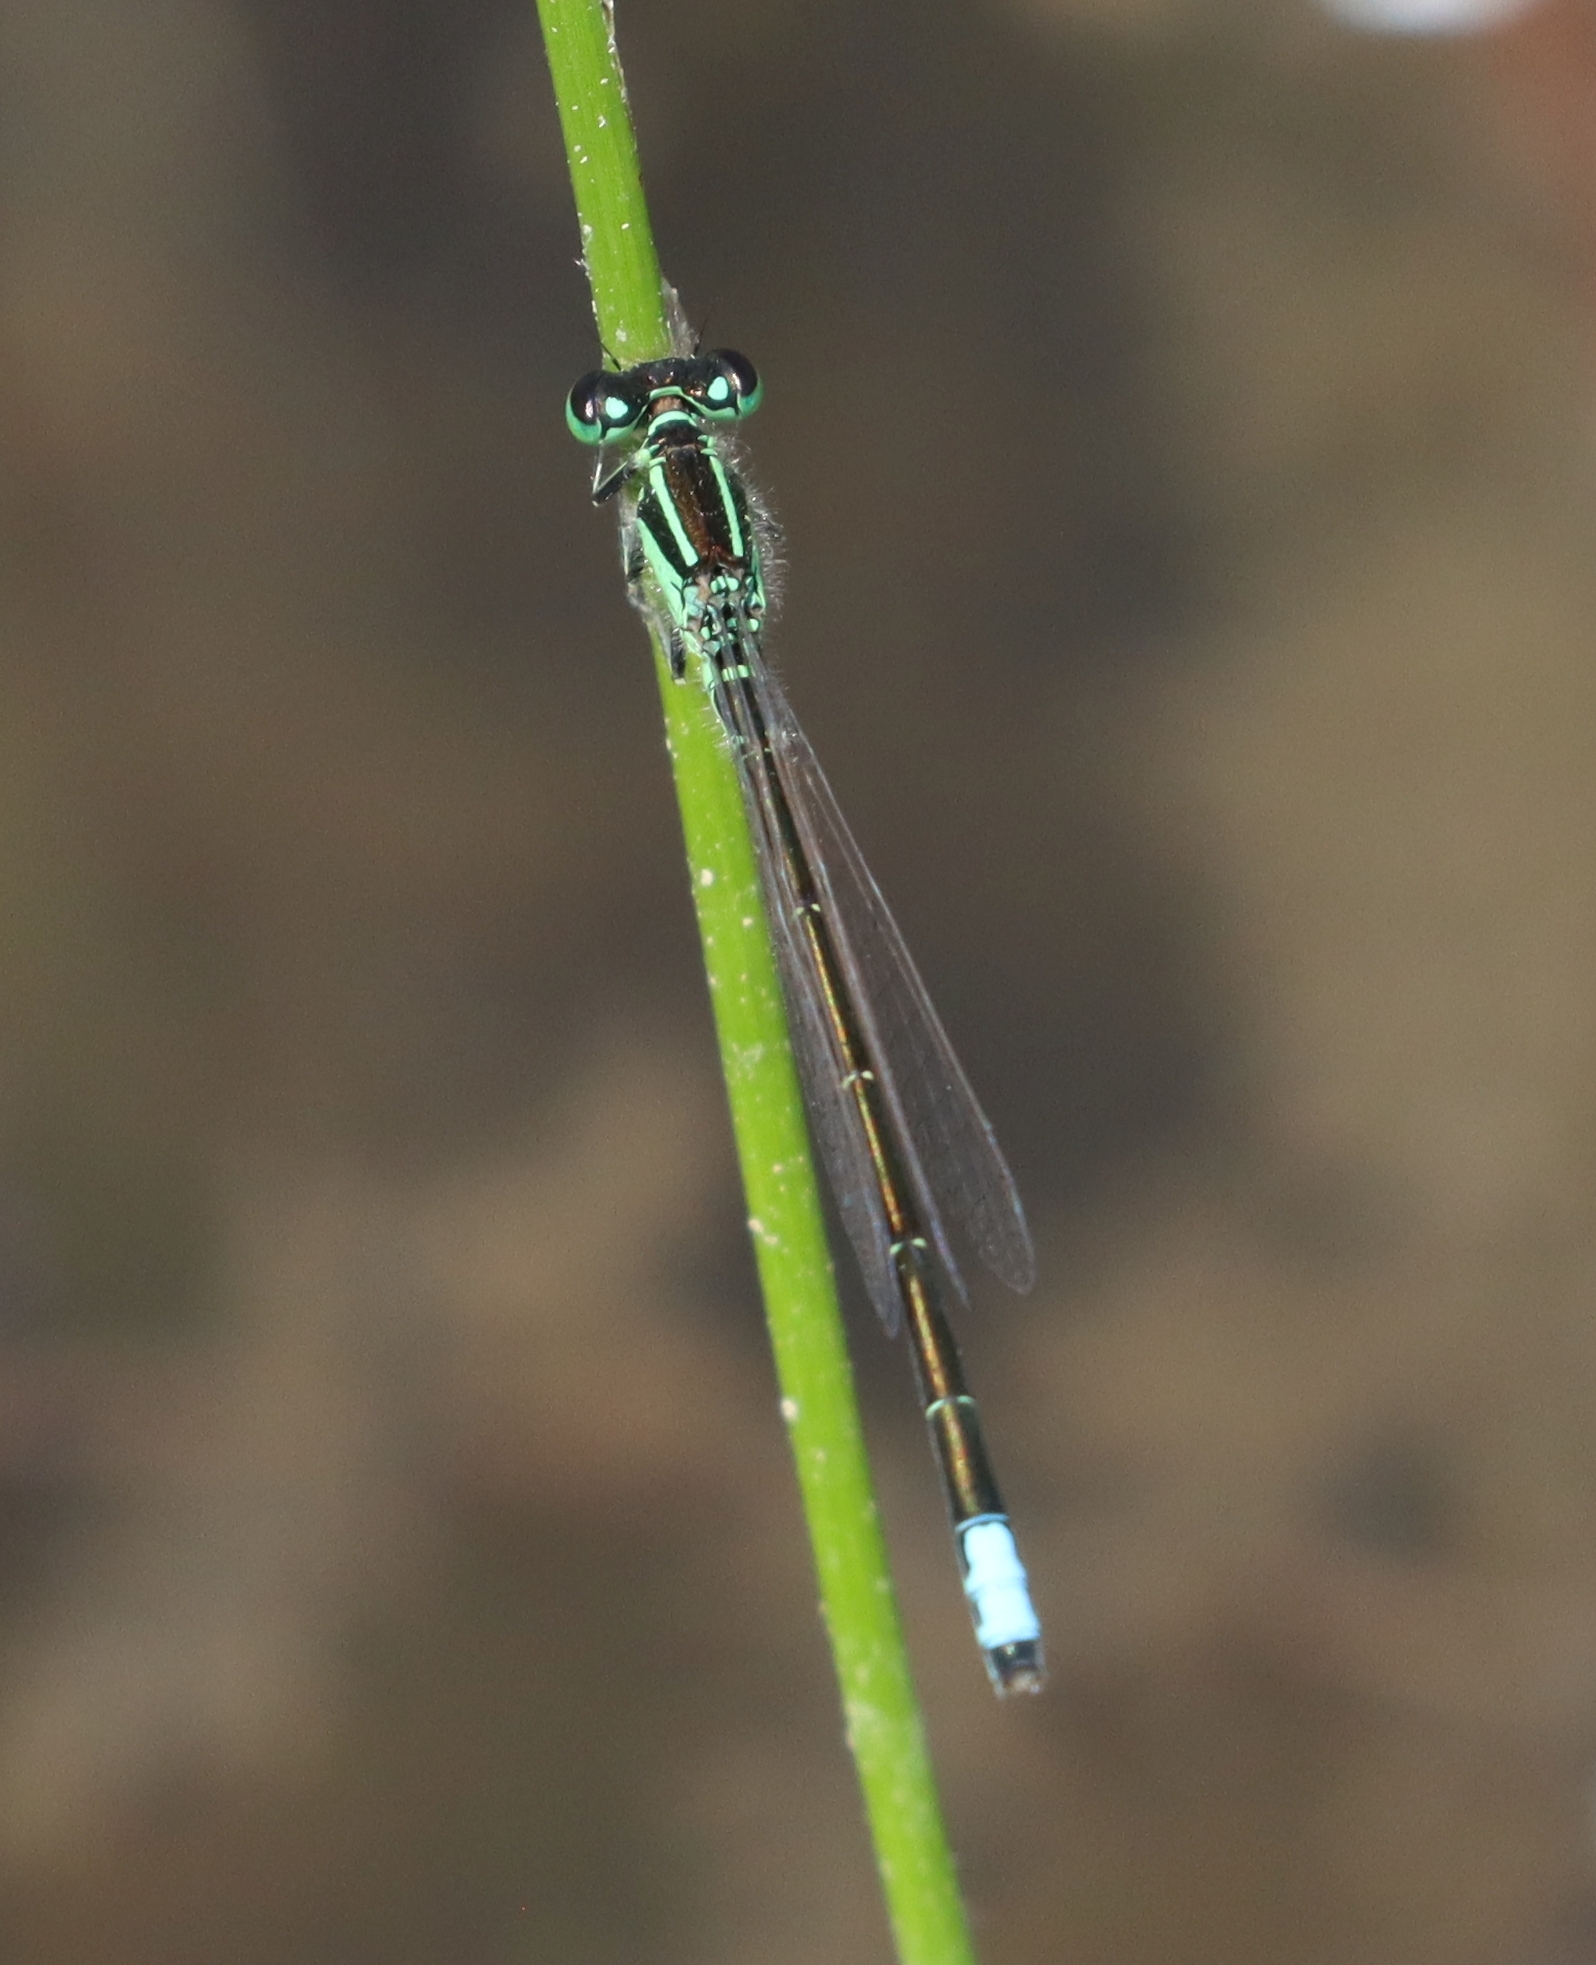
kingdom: Animalia
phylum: Arthropoda
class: Insecta
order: Odonata
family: Coenagrionidae
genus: Ischnura
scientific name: Ischnura verticalis
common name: Eastern forktail
